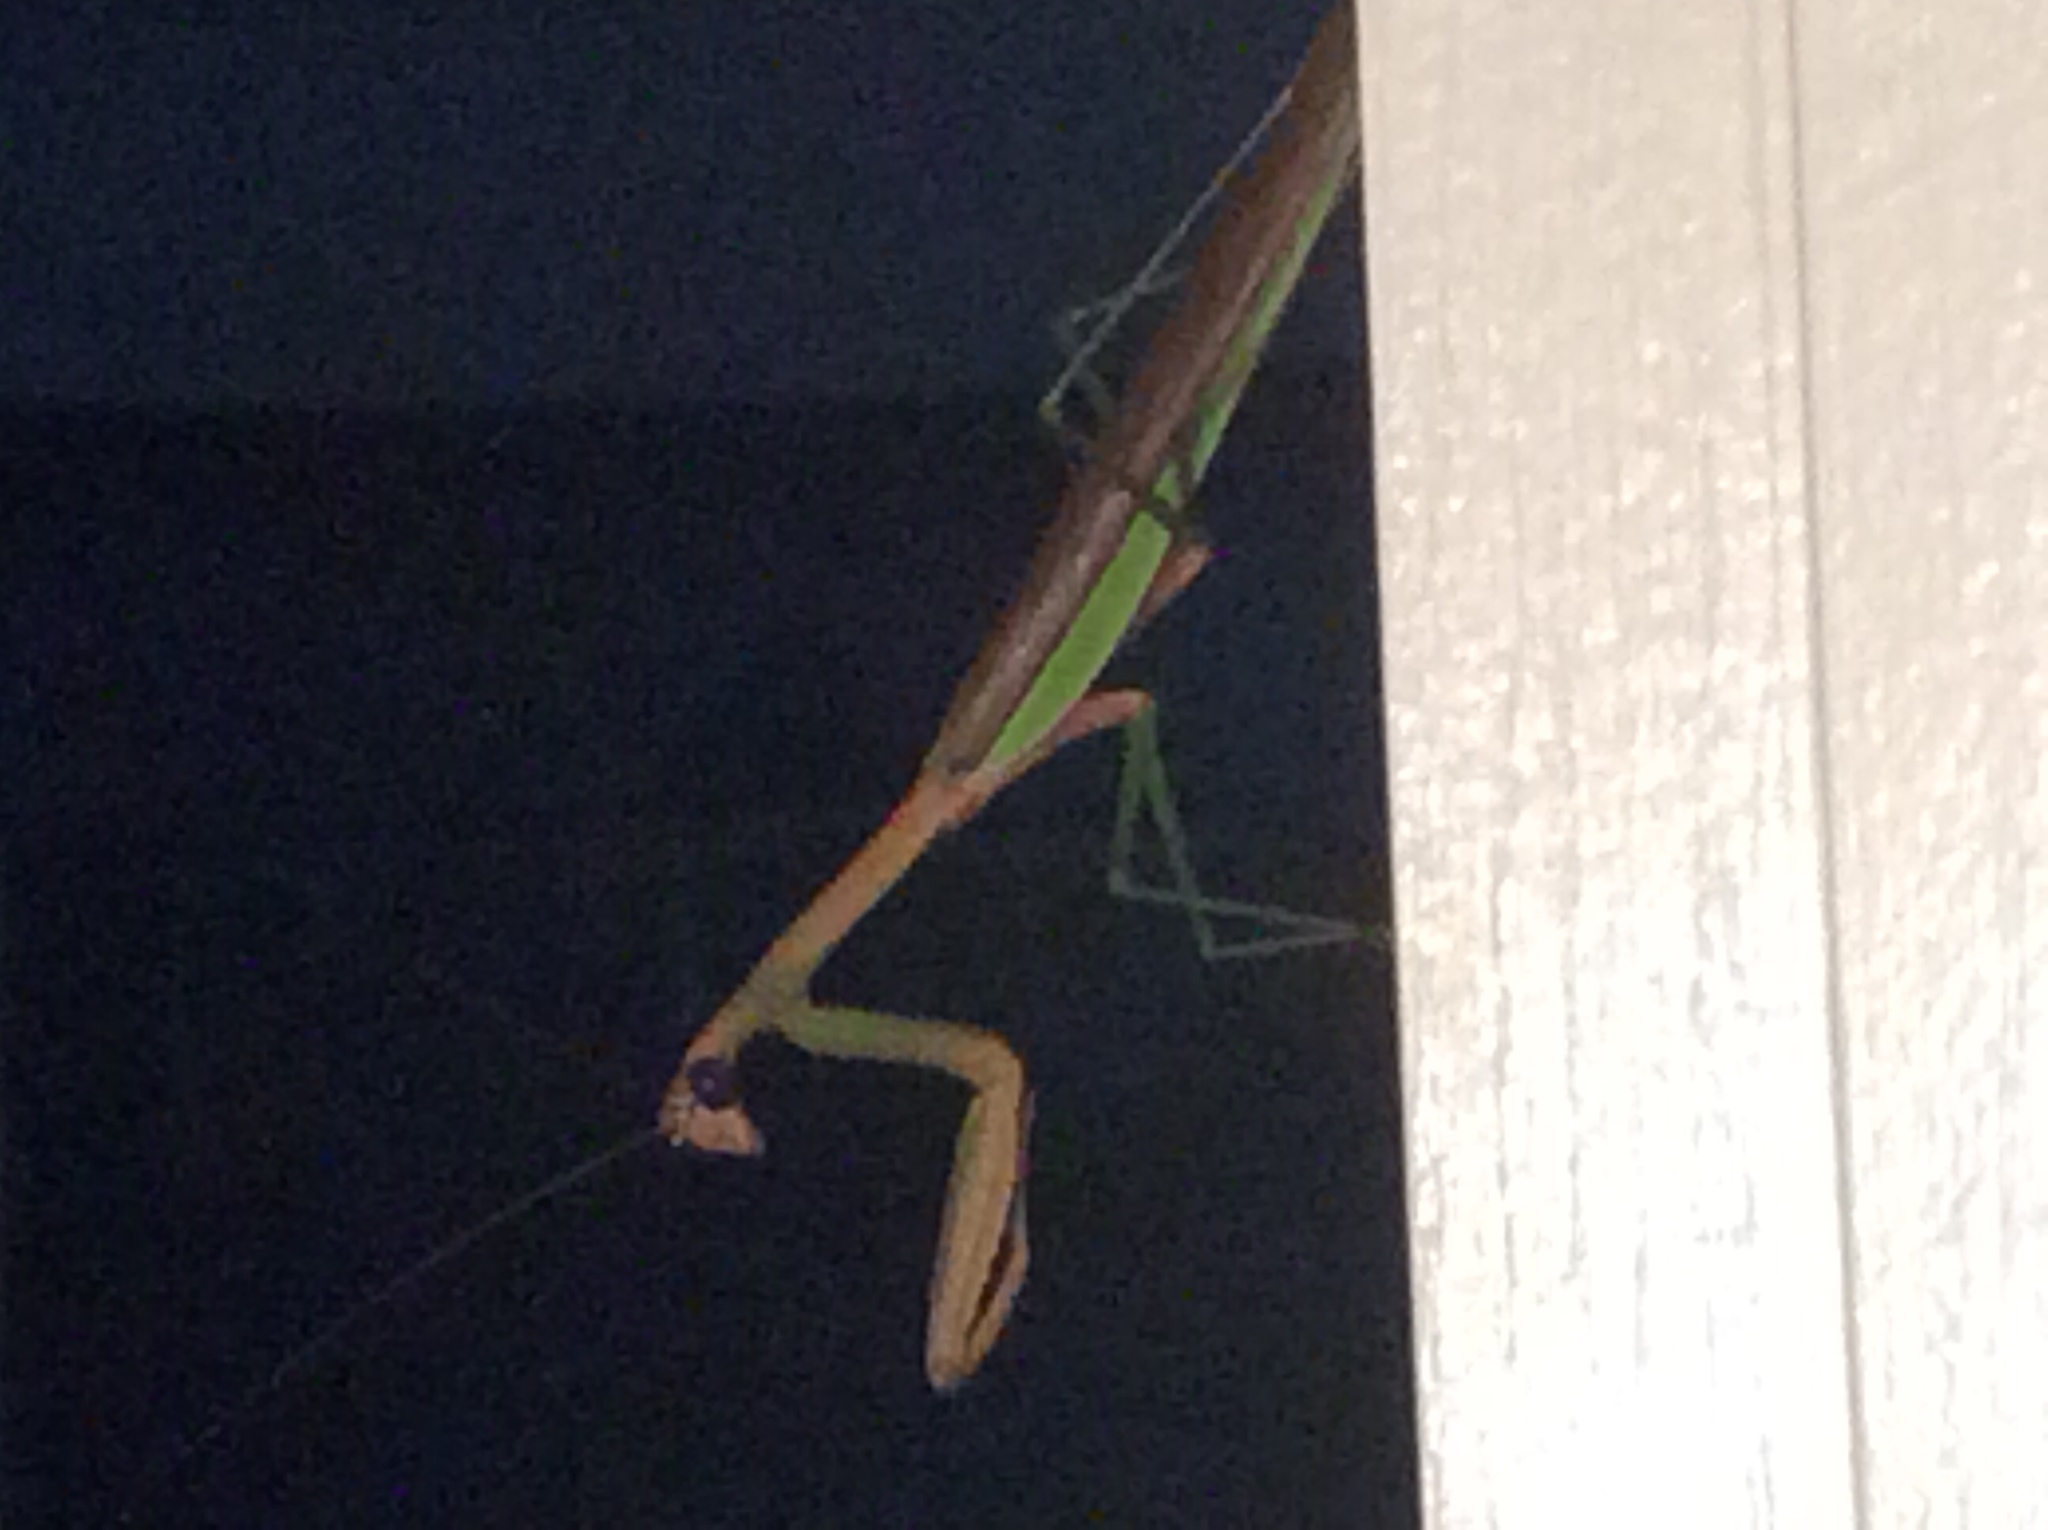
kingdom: Animalia
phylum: Arthropoda
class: Insecta
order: Mantodea
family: Mantidae
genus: Tenodera
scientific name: Tenodera sinensis
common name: Chinese mantis
